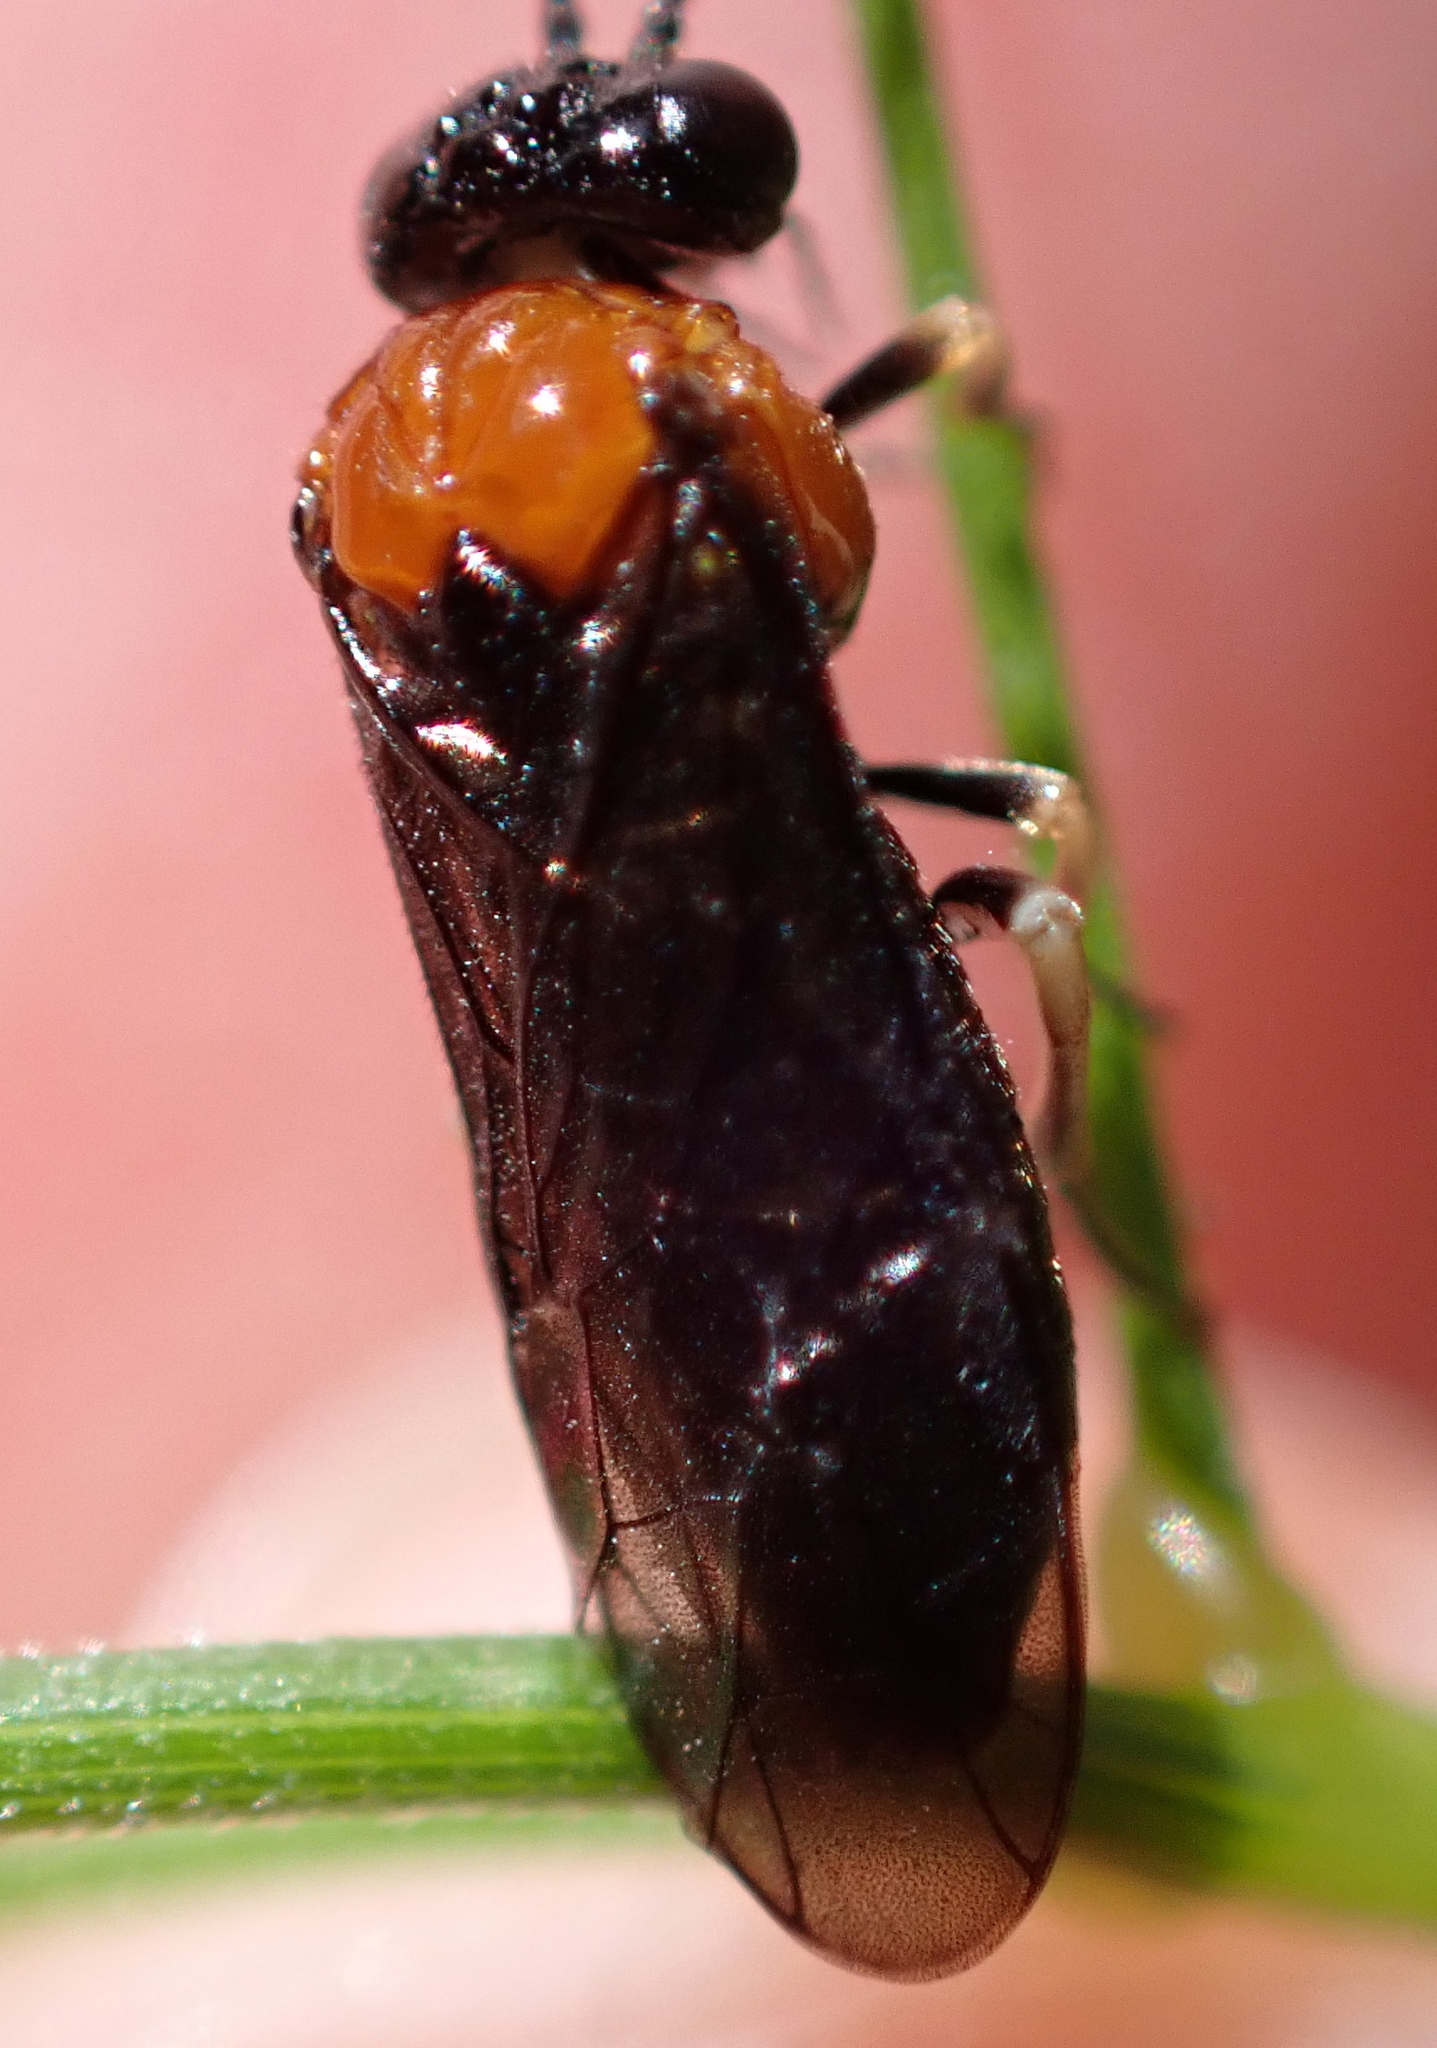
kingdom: Animalia
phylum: Arthropoda
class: Insecta
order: Hymenoptera
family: Tenthredinidae
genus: Eutomostethus
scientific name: Eutomostethus ephippium
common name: Tenthredid wasp
